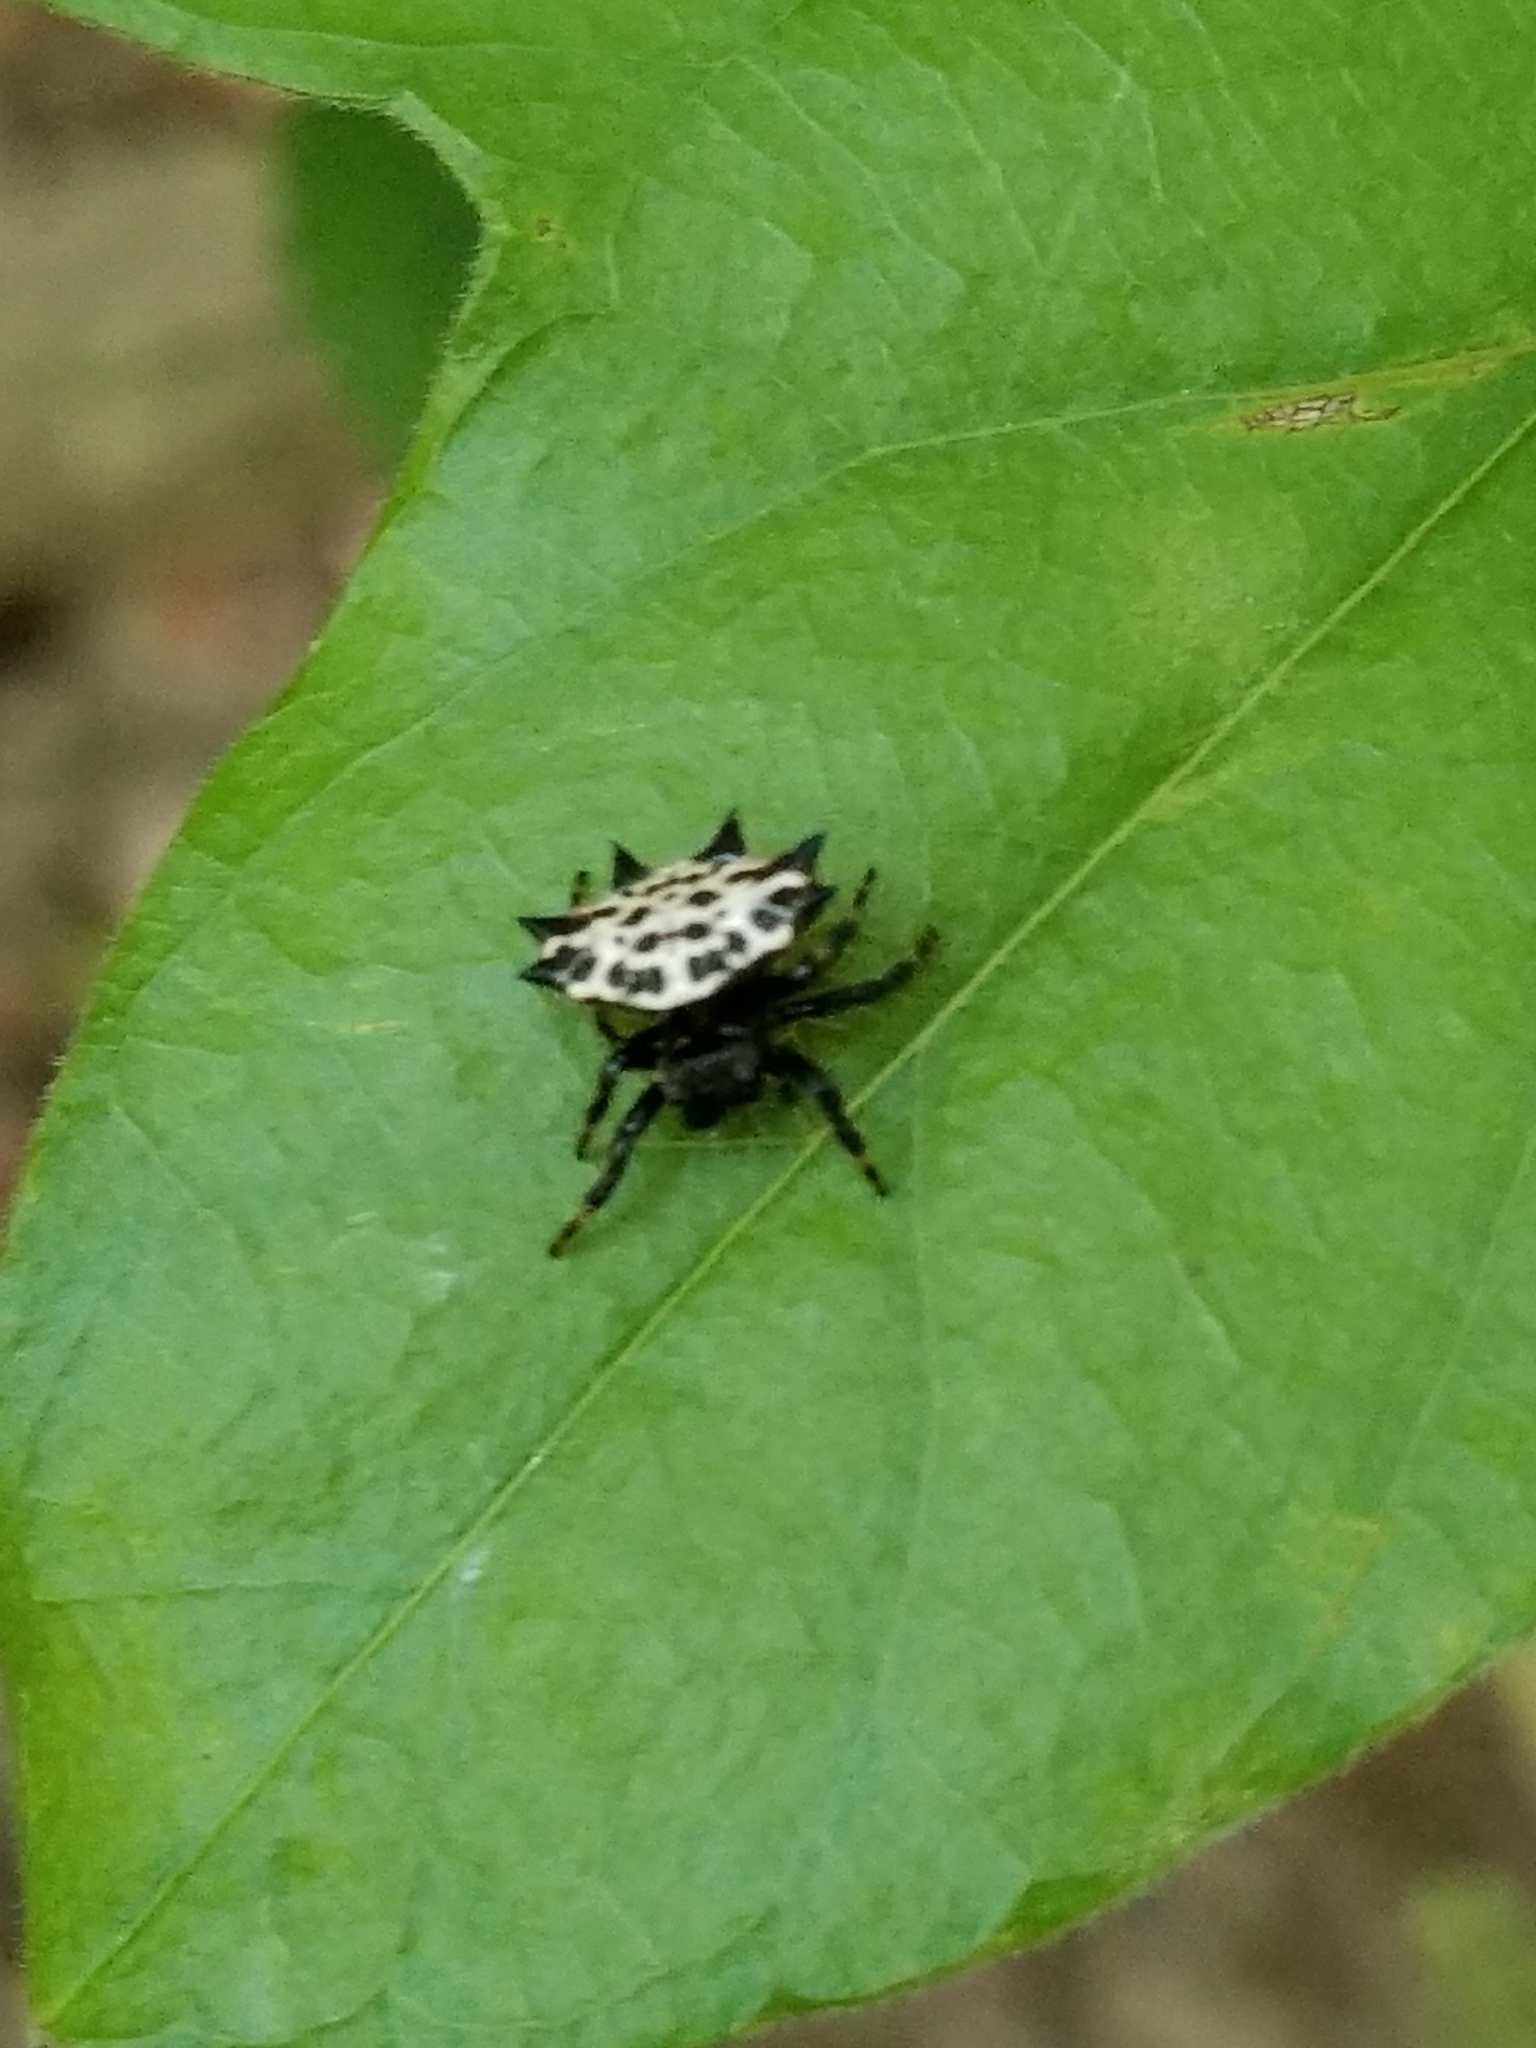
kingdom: Animalia
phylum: Arthropoda
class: Arachnida
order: Araneae
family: Araneidae
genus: Gasteracantha
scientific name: Gasteracantha cancriformis
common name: Orb weavers
